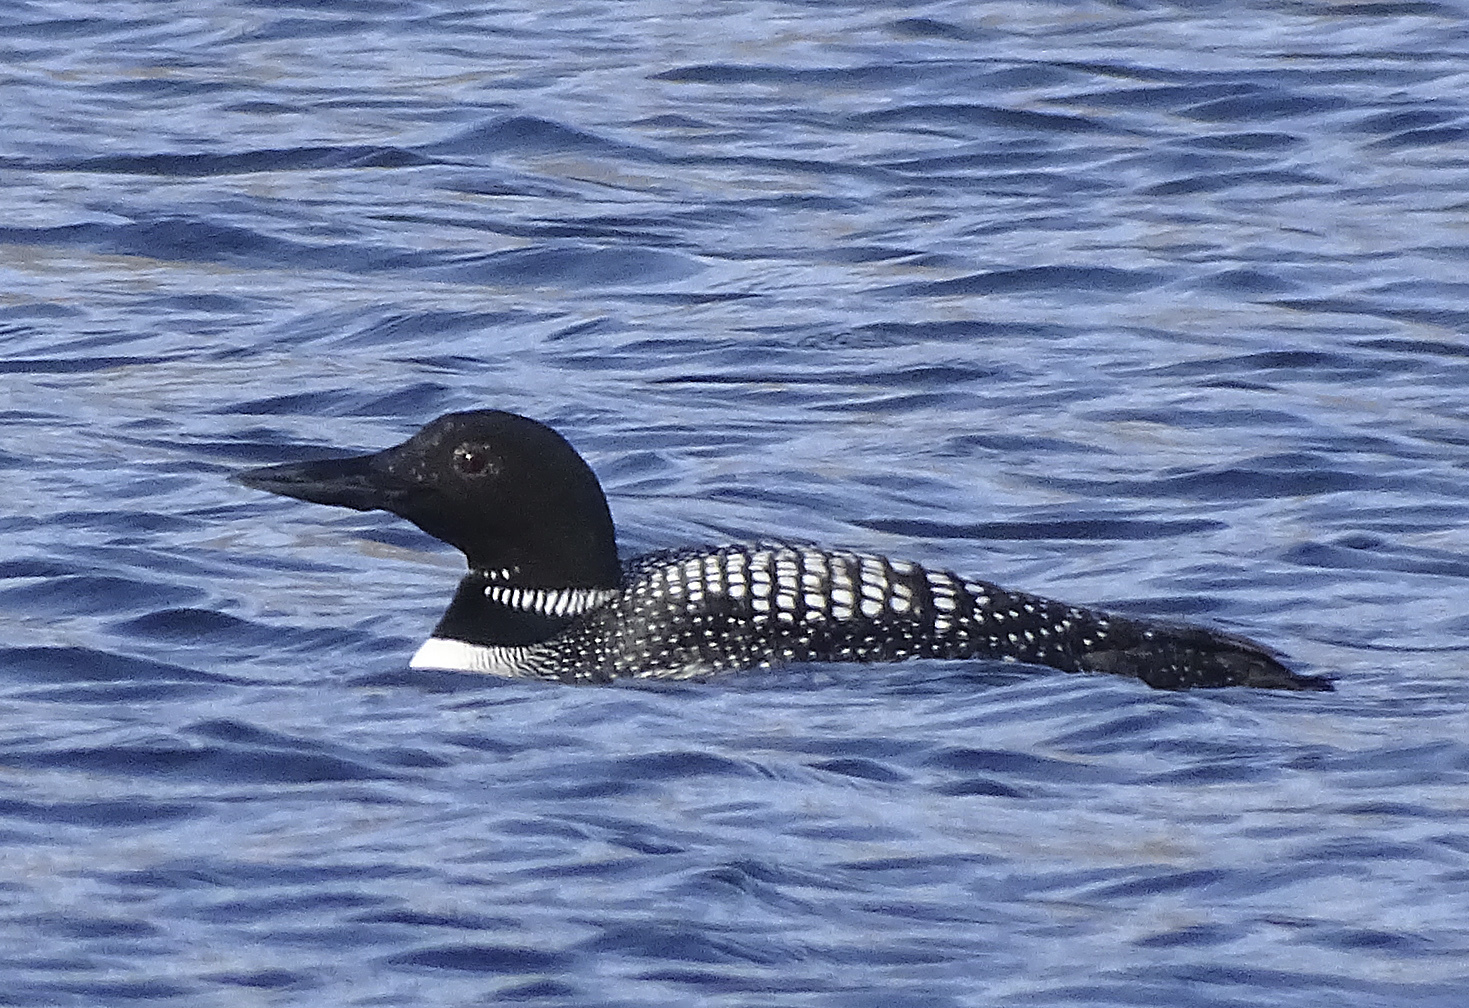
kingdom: Animalia
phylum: Chordata
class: Aves
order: Gaviiformes
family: Gaviidae
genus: Gavia
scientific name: Gavia immer
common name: Common loon
